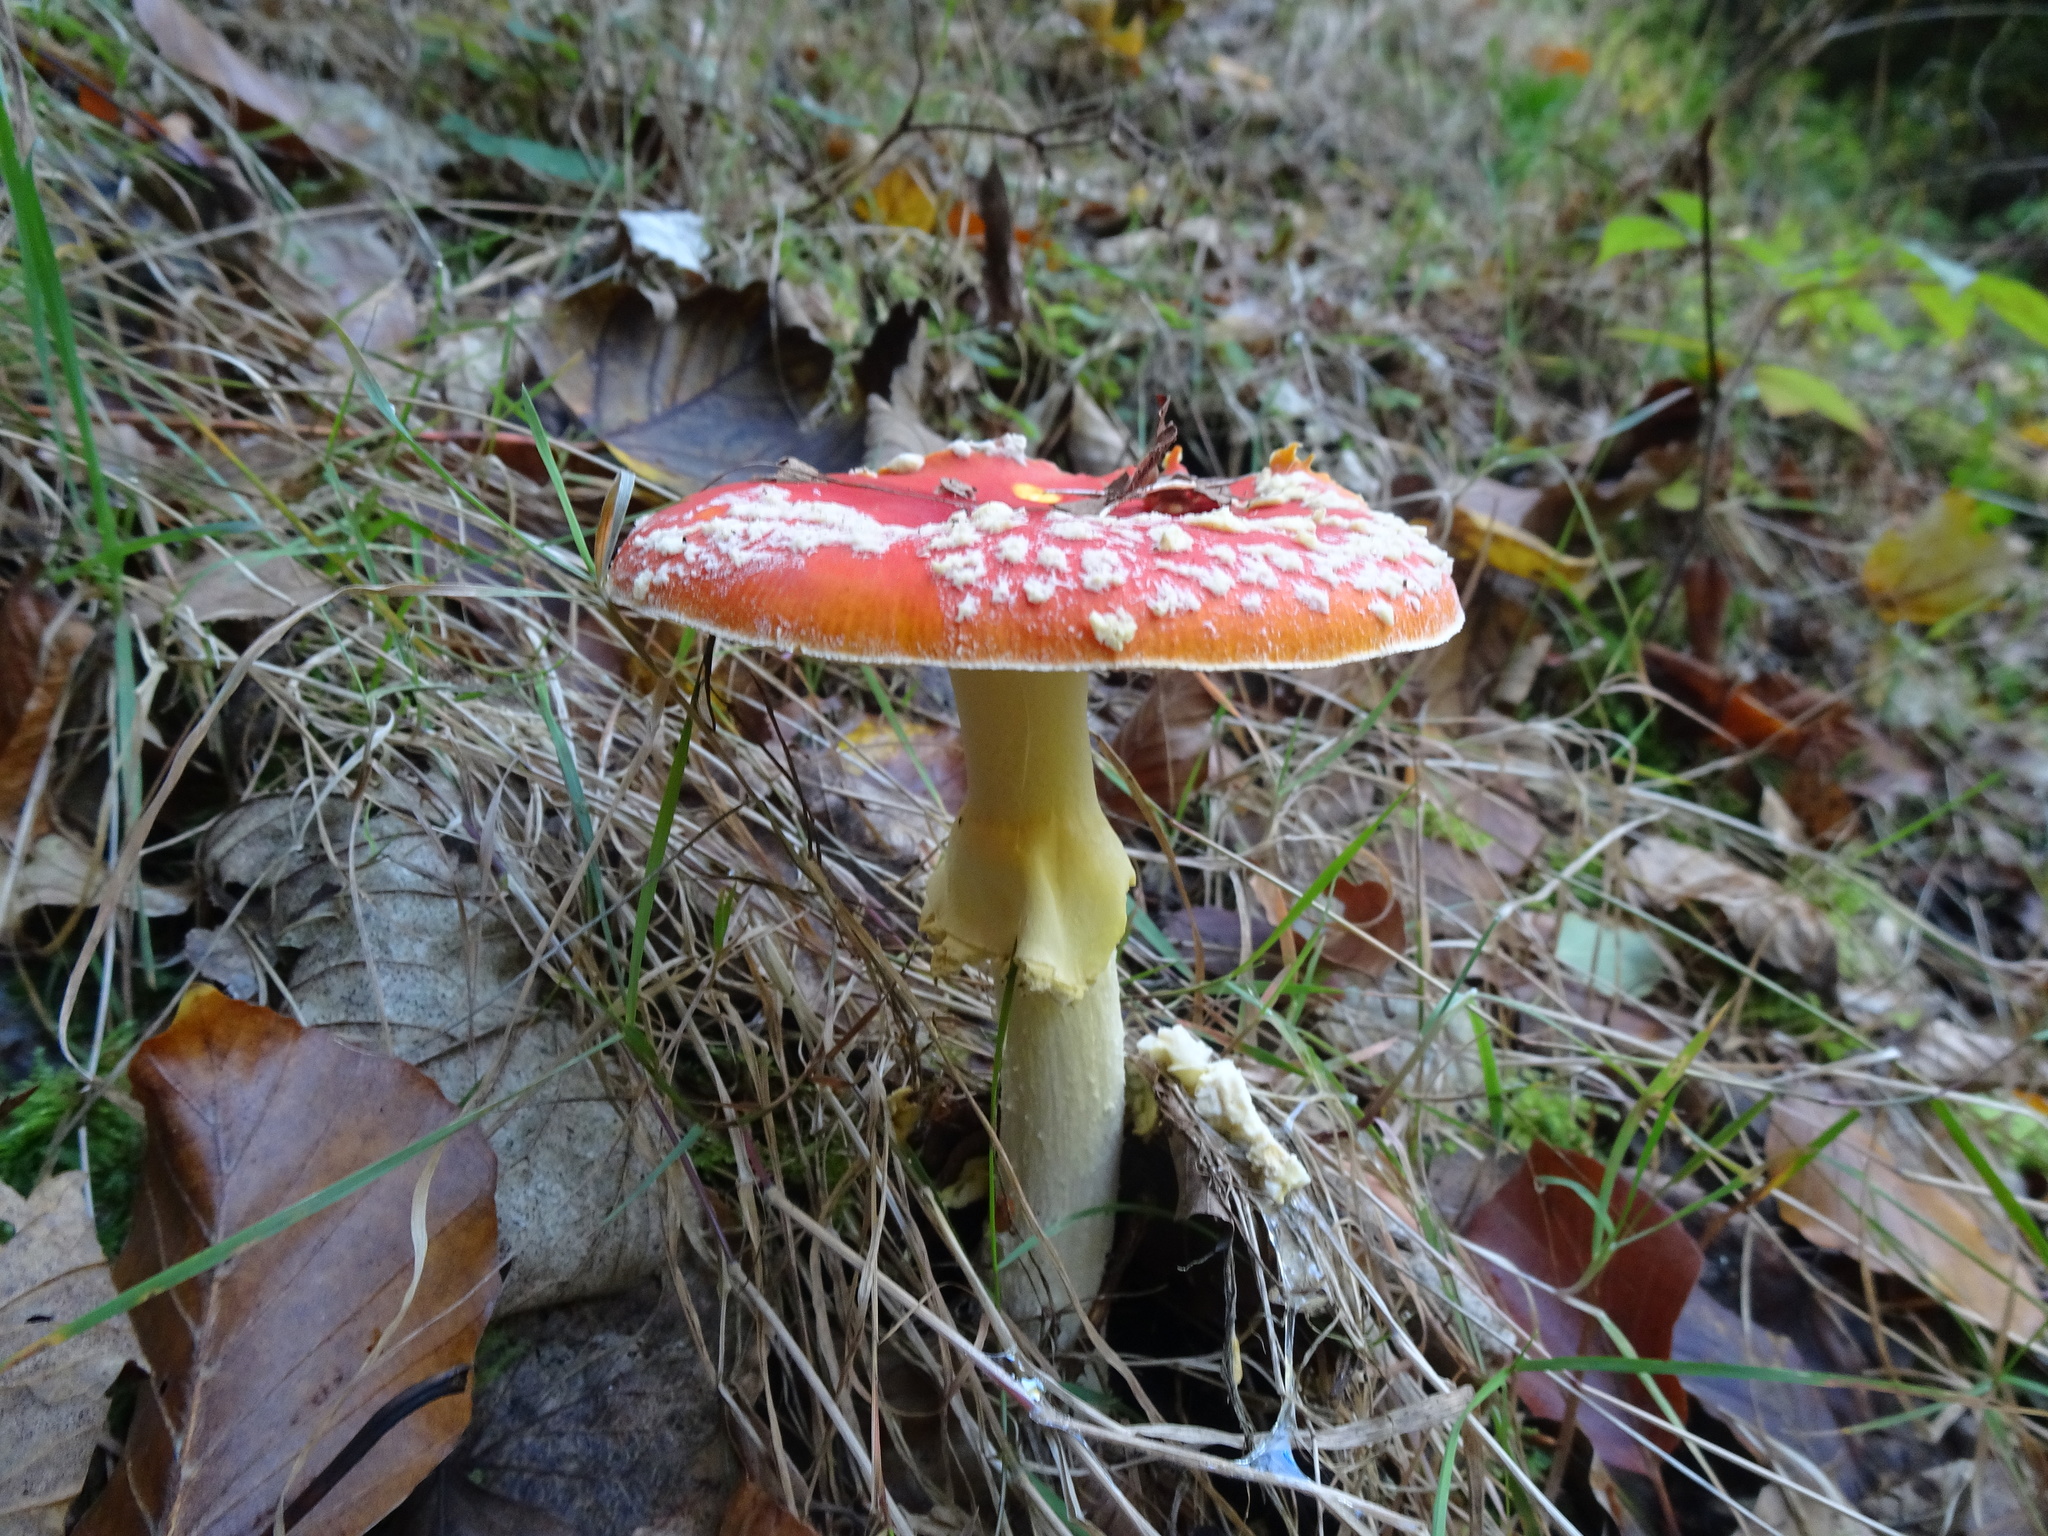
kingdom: Fungi
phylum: Basidiomycota
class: Agaricomycetes
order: Agaricales
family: Amanitaceae
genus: Amanita
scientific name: Amanita muscaria
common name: Fly agaric
